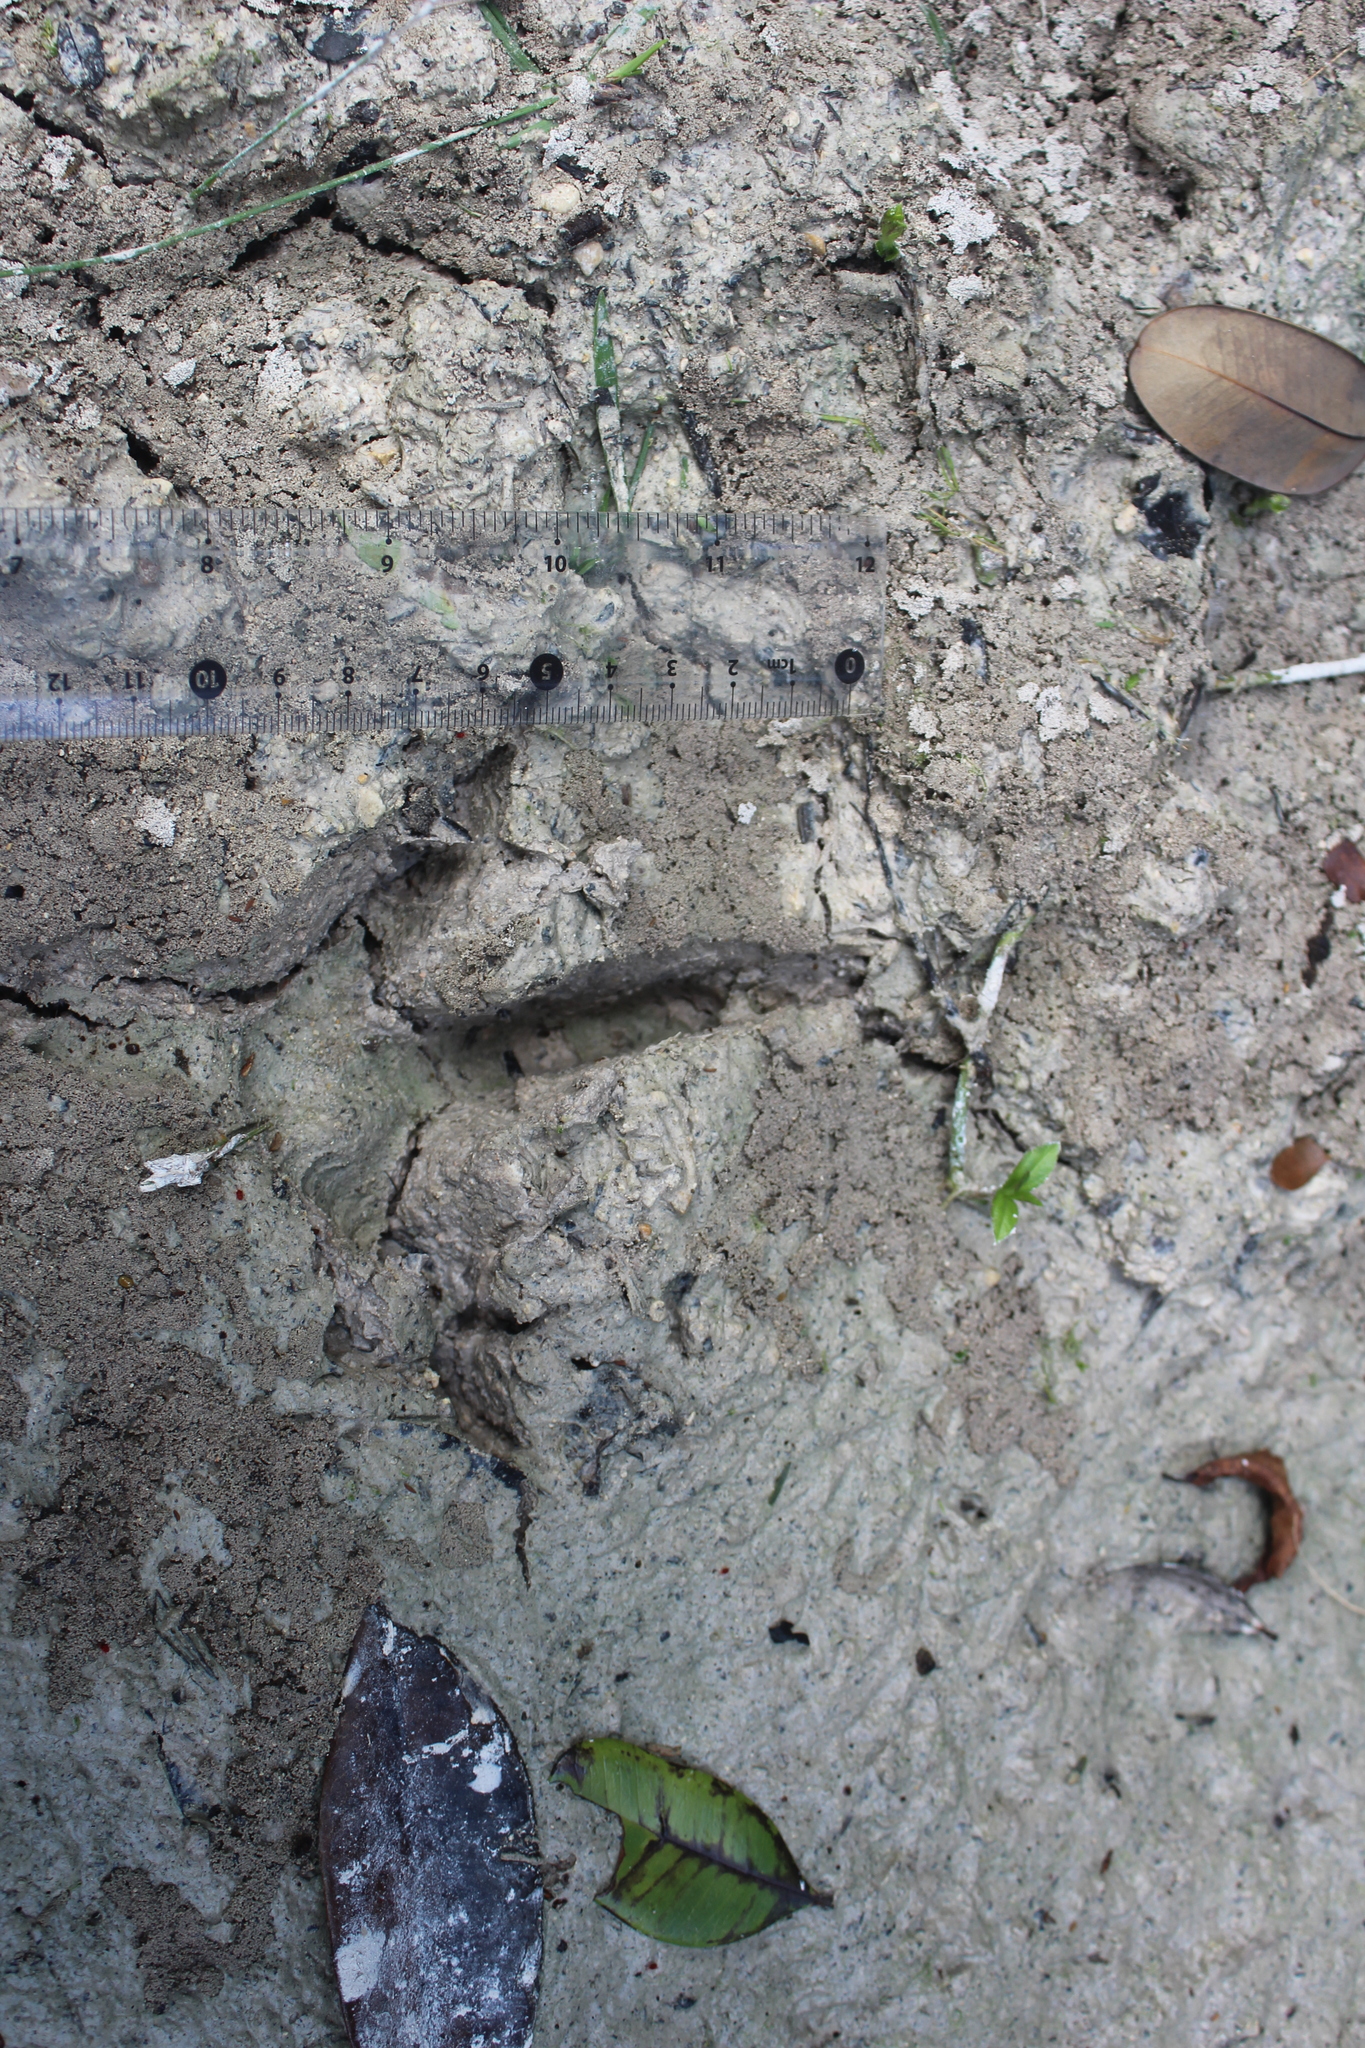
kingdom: Animalia
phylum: Chordata
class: Aves
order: Galliformes
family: Phasianidae
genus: Meleagris
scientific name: Meleagris ocellata
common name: Ocellated turkey
